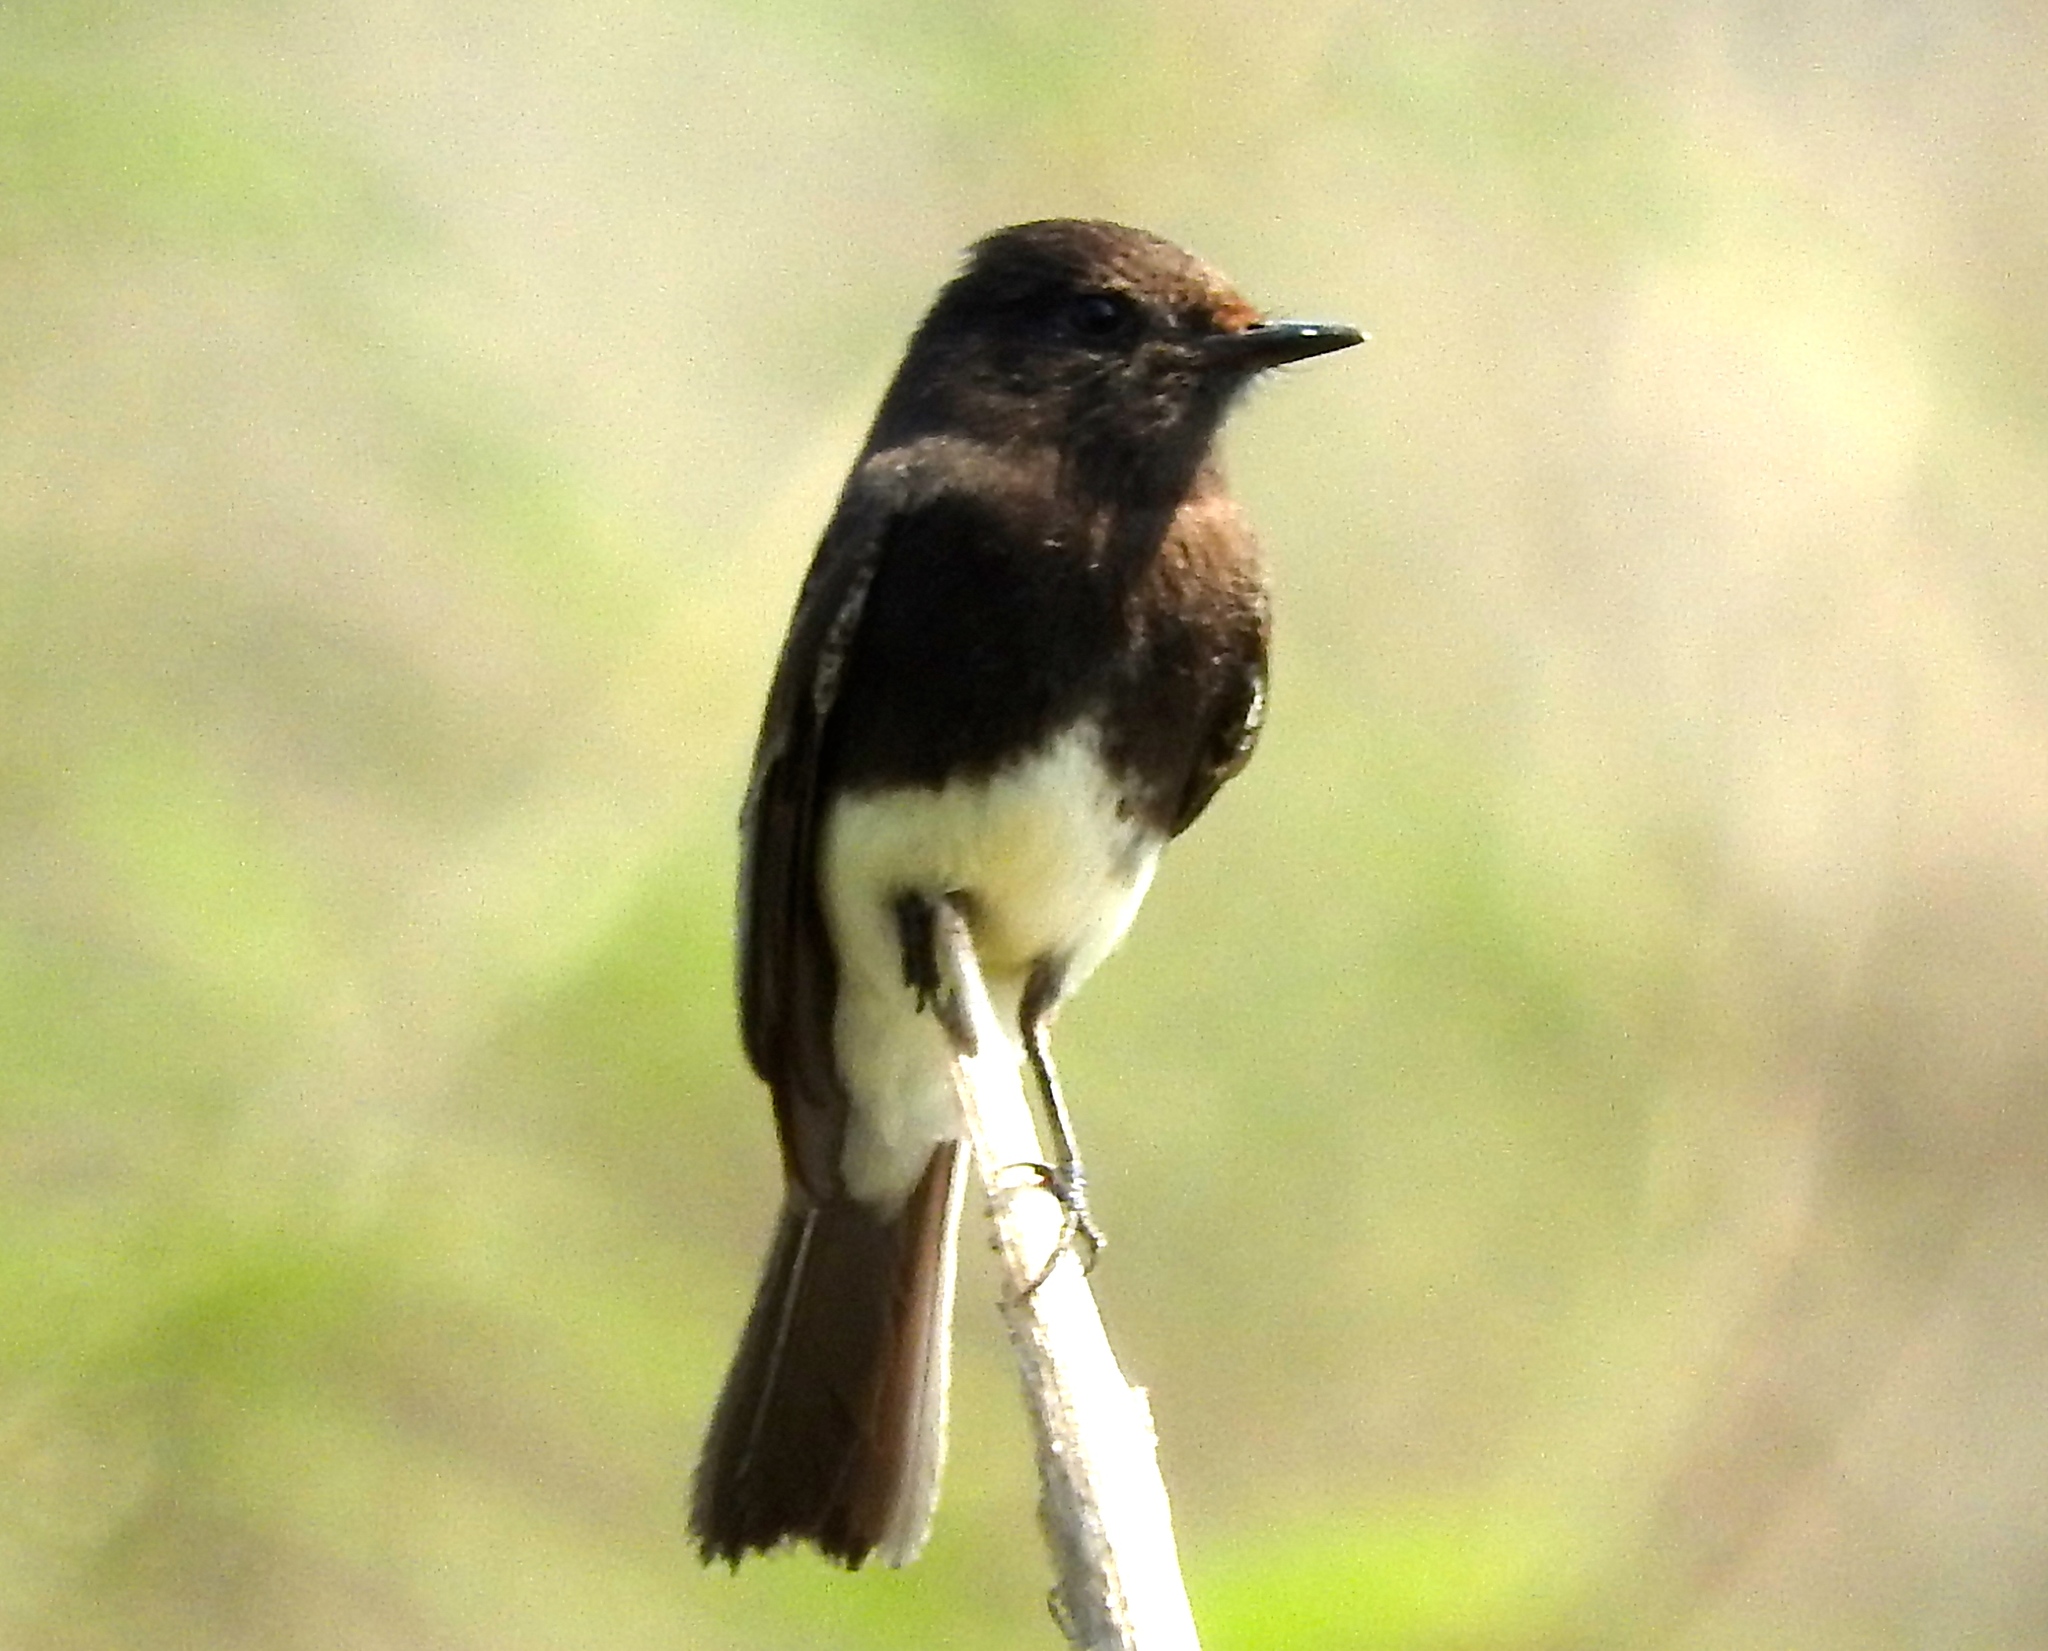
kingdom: Animalia
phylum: Chordata
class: Aves
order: Passeriformes
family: Tyrannidae
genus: Sayornis
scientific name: Sayornis nigricans
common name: Black phoebe
